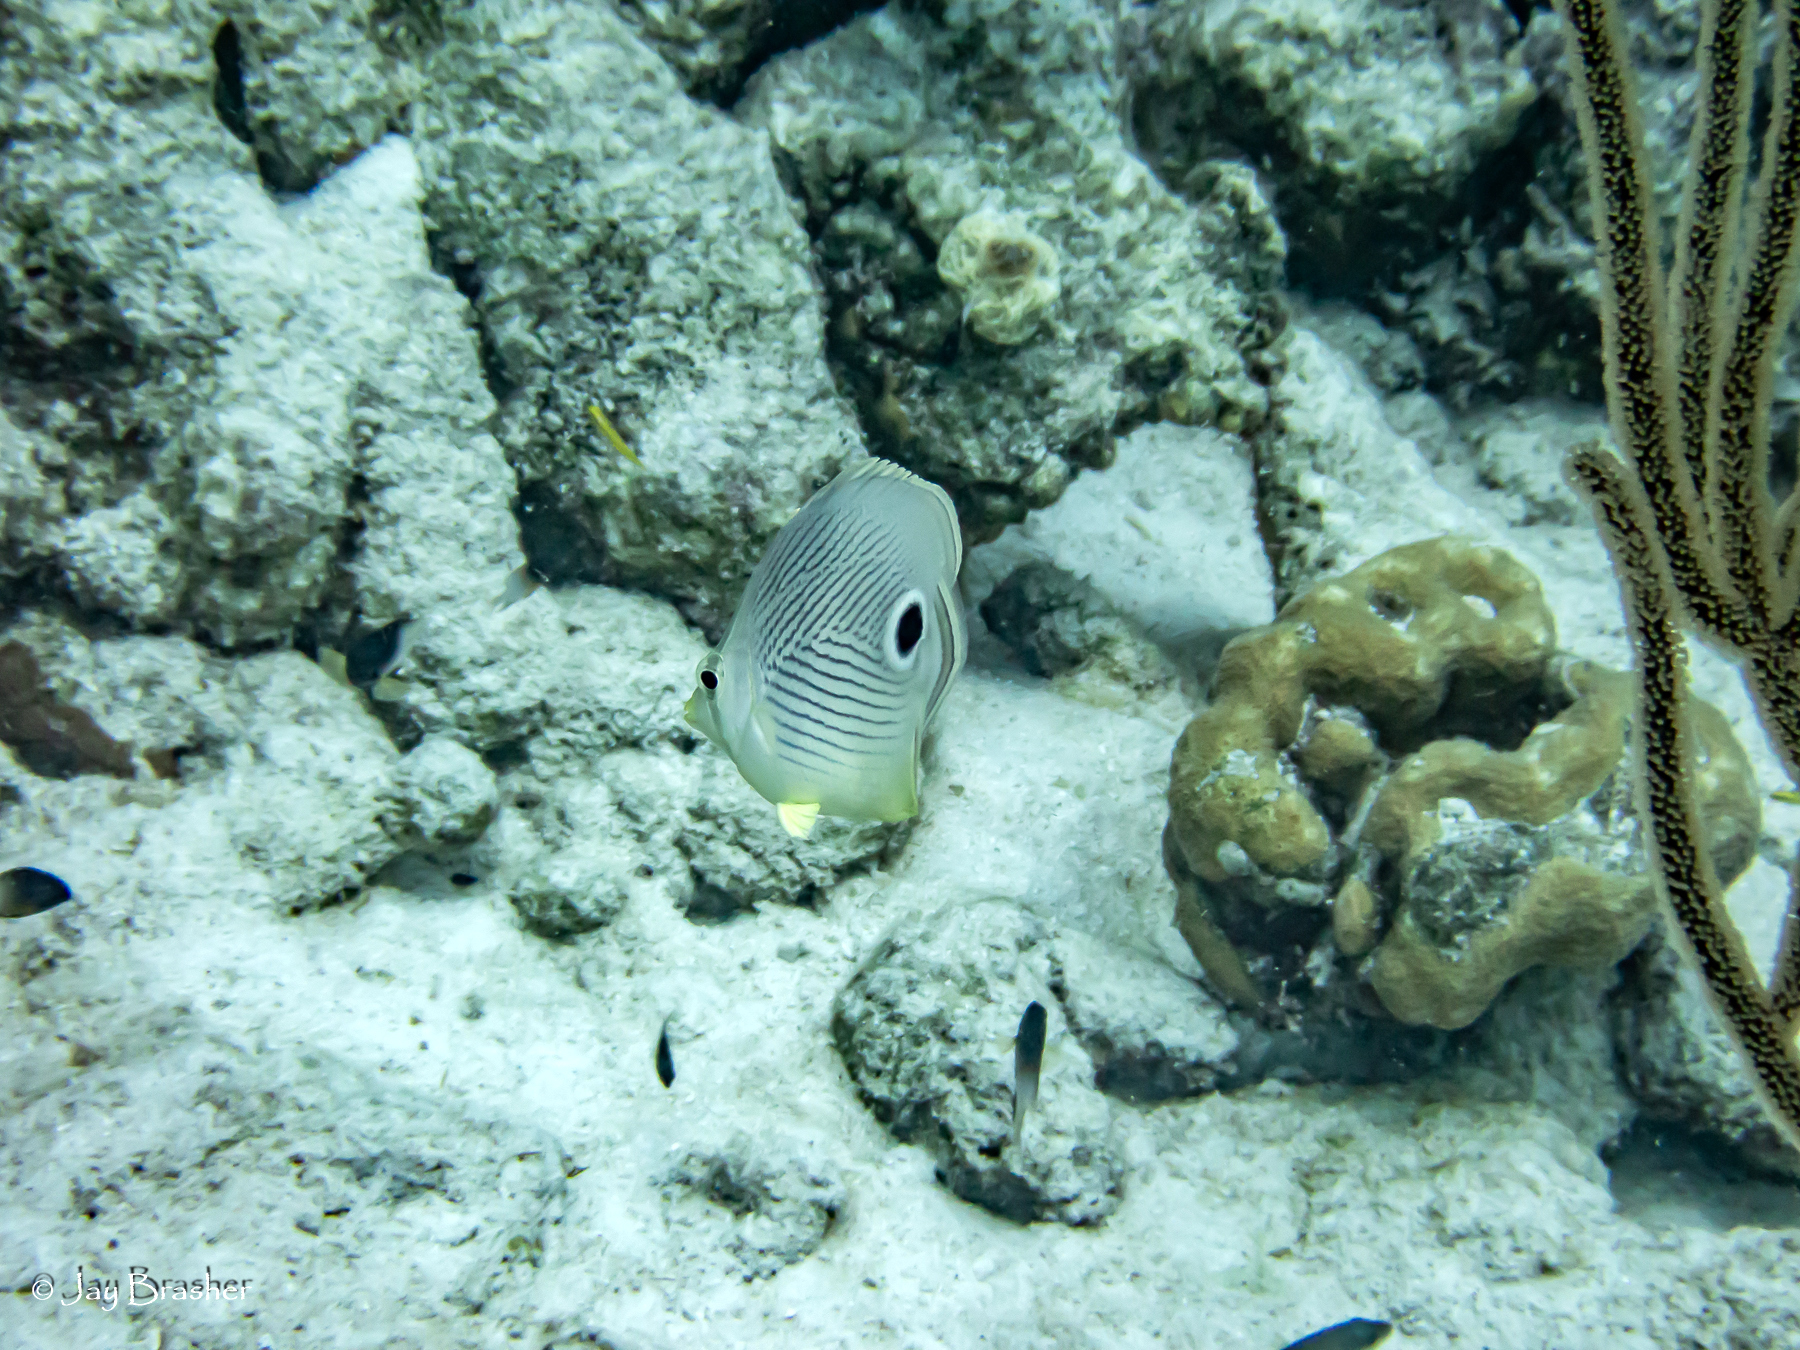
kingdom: Animalia
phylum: Chordata
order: Perciformes
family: Chaetodontidae
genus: Chaetodon
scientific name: Chaetodon capistratus
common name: Kete
